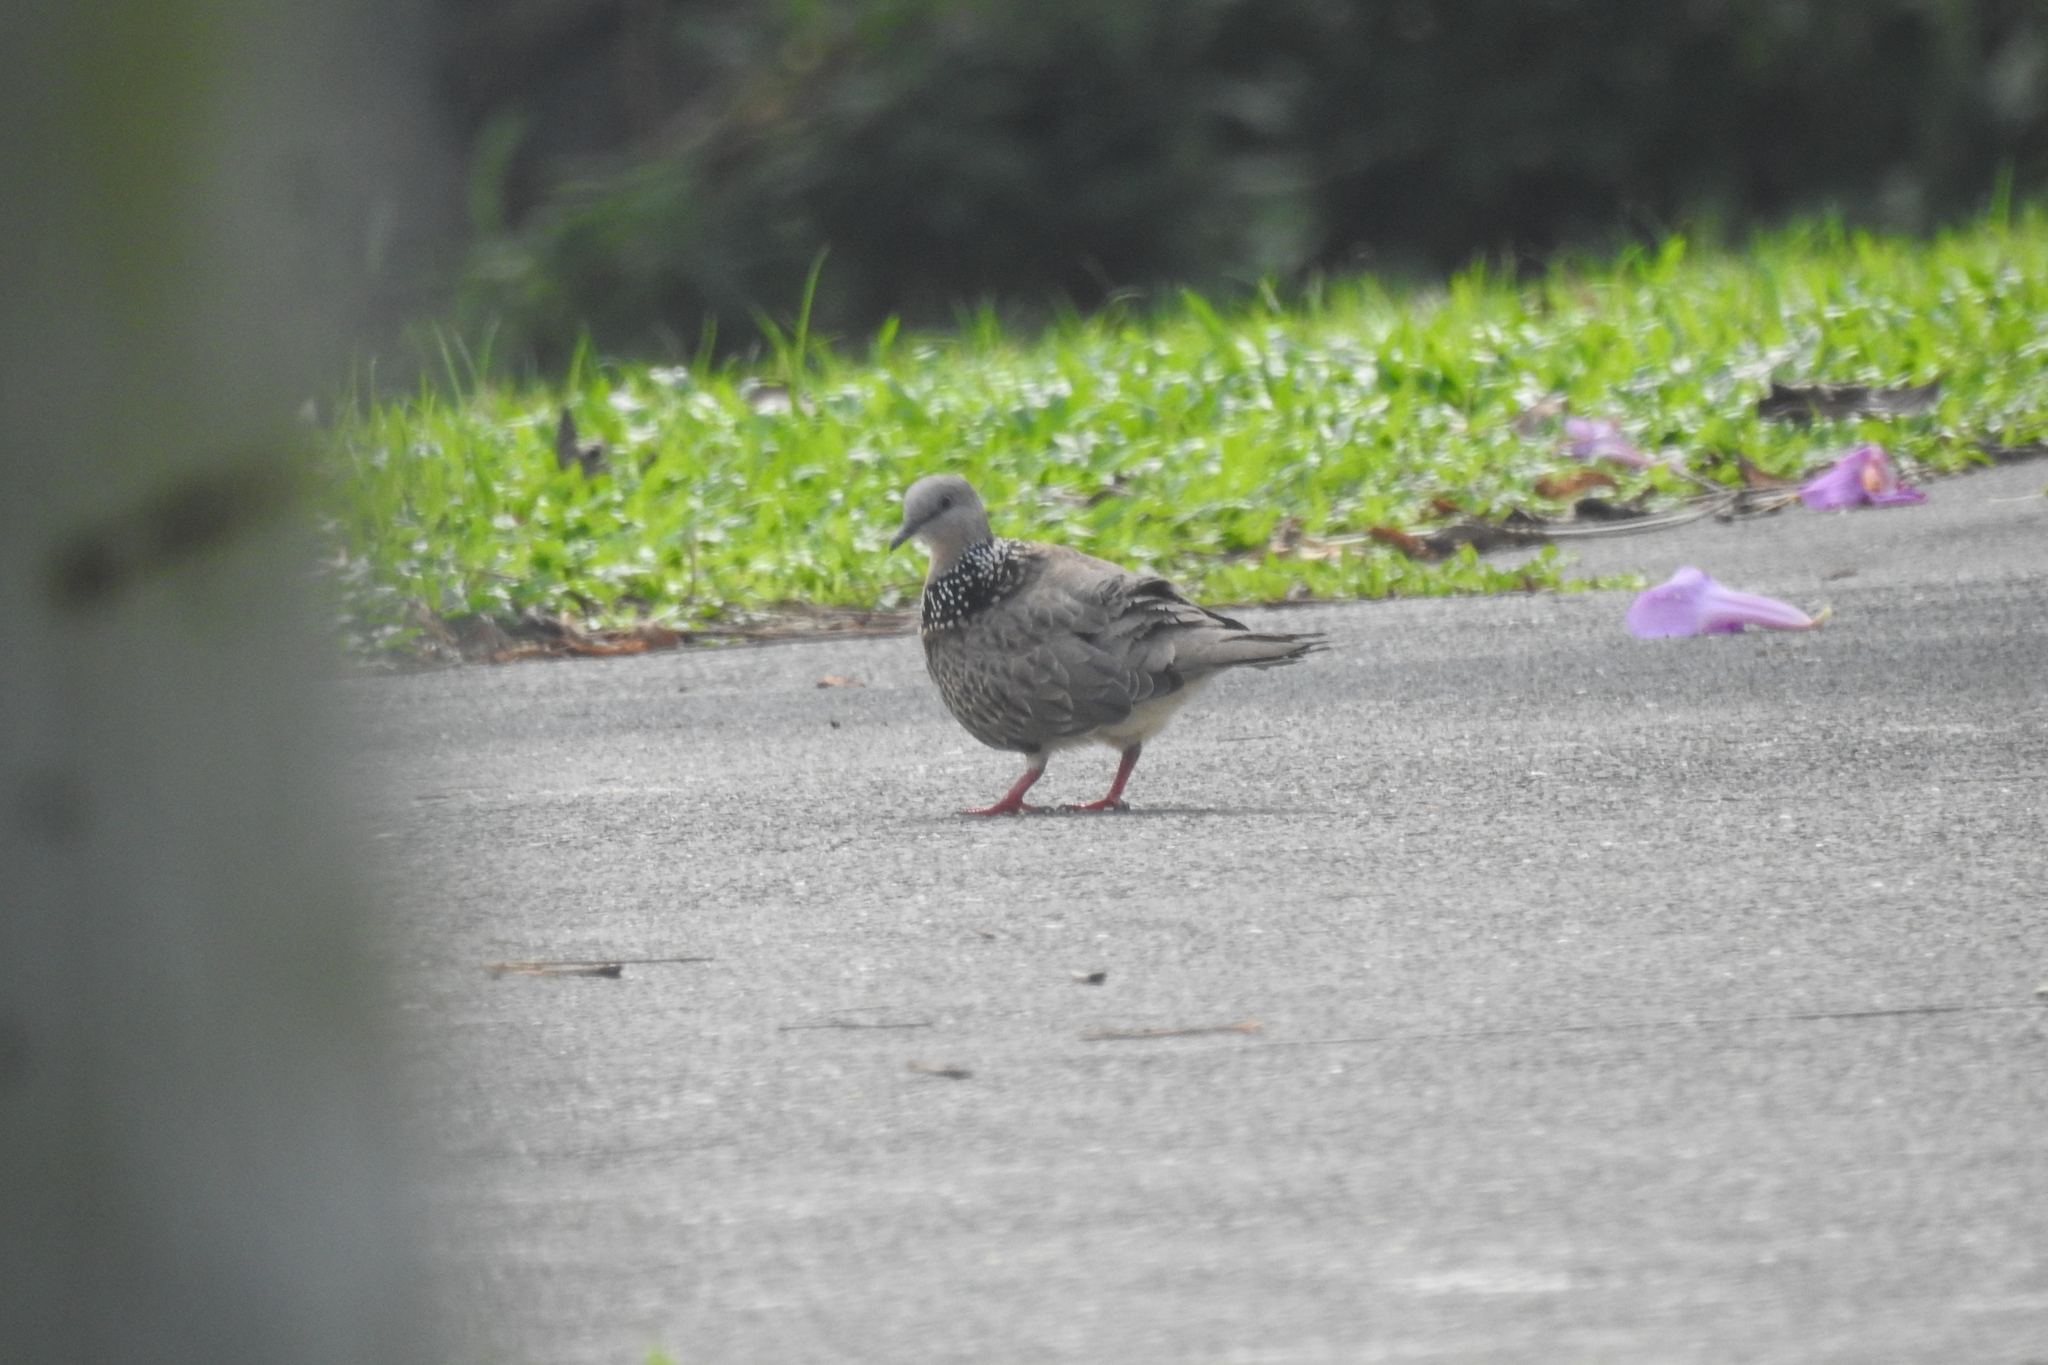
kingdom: Animalia
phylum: Chordata
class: Aves
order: Columbiformes
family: Columbidae
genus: Spilopelia
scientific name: Spilopelia chinensis
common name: Spotted dove
